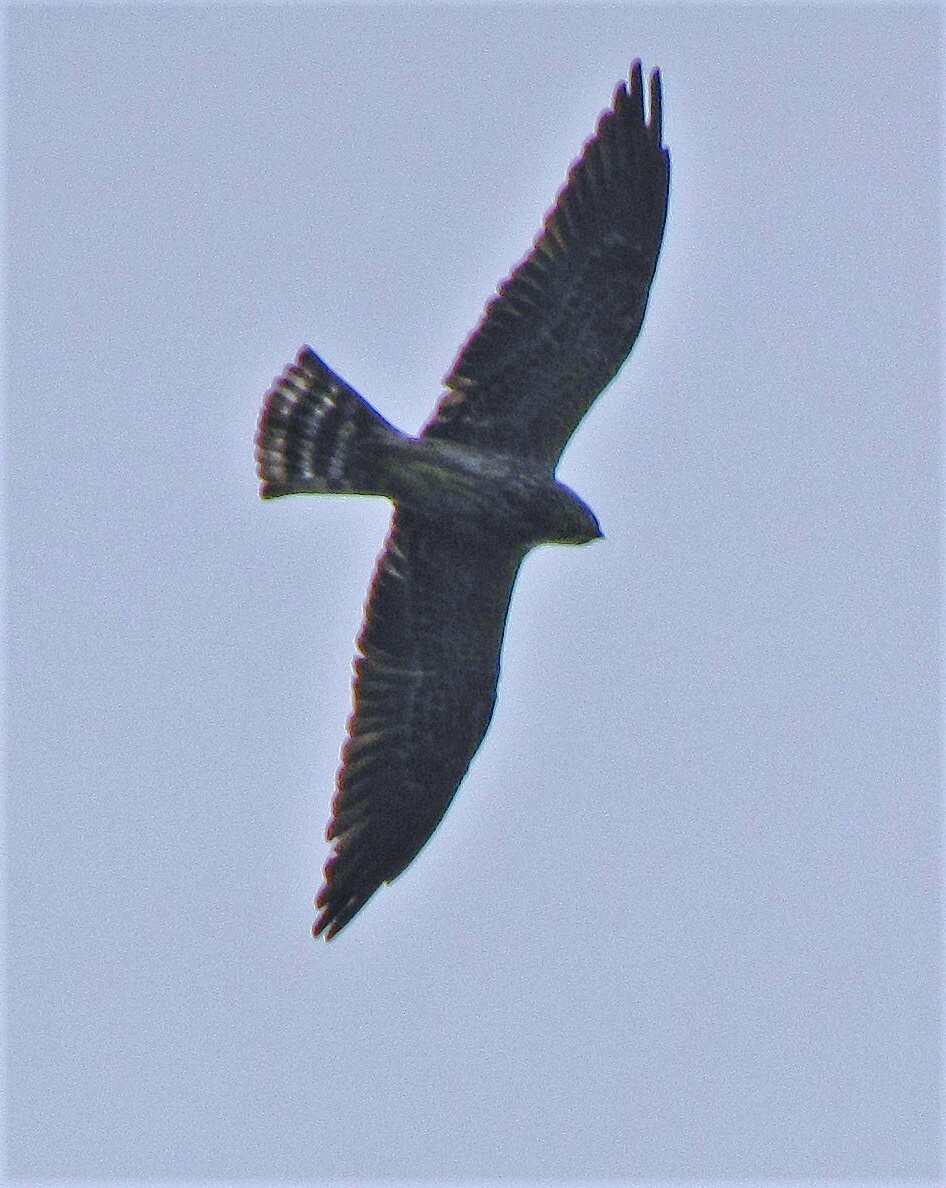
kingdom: Animalia
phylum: Chordata
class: Aves
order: Accipitriformes
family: Accipitridae
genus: Ictinia
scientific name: Ictinia mississippiensis
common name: Mississippi kite
